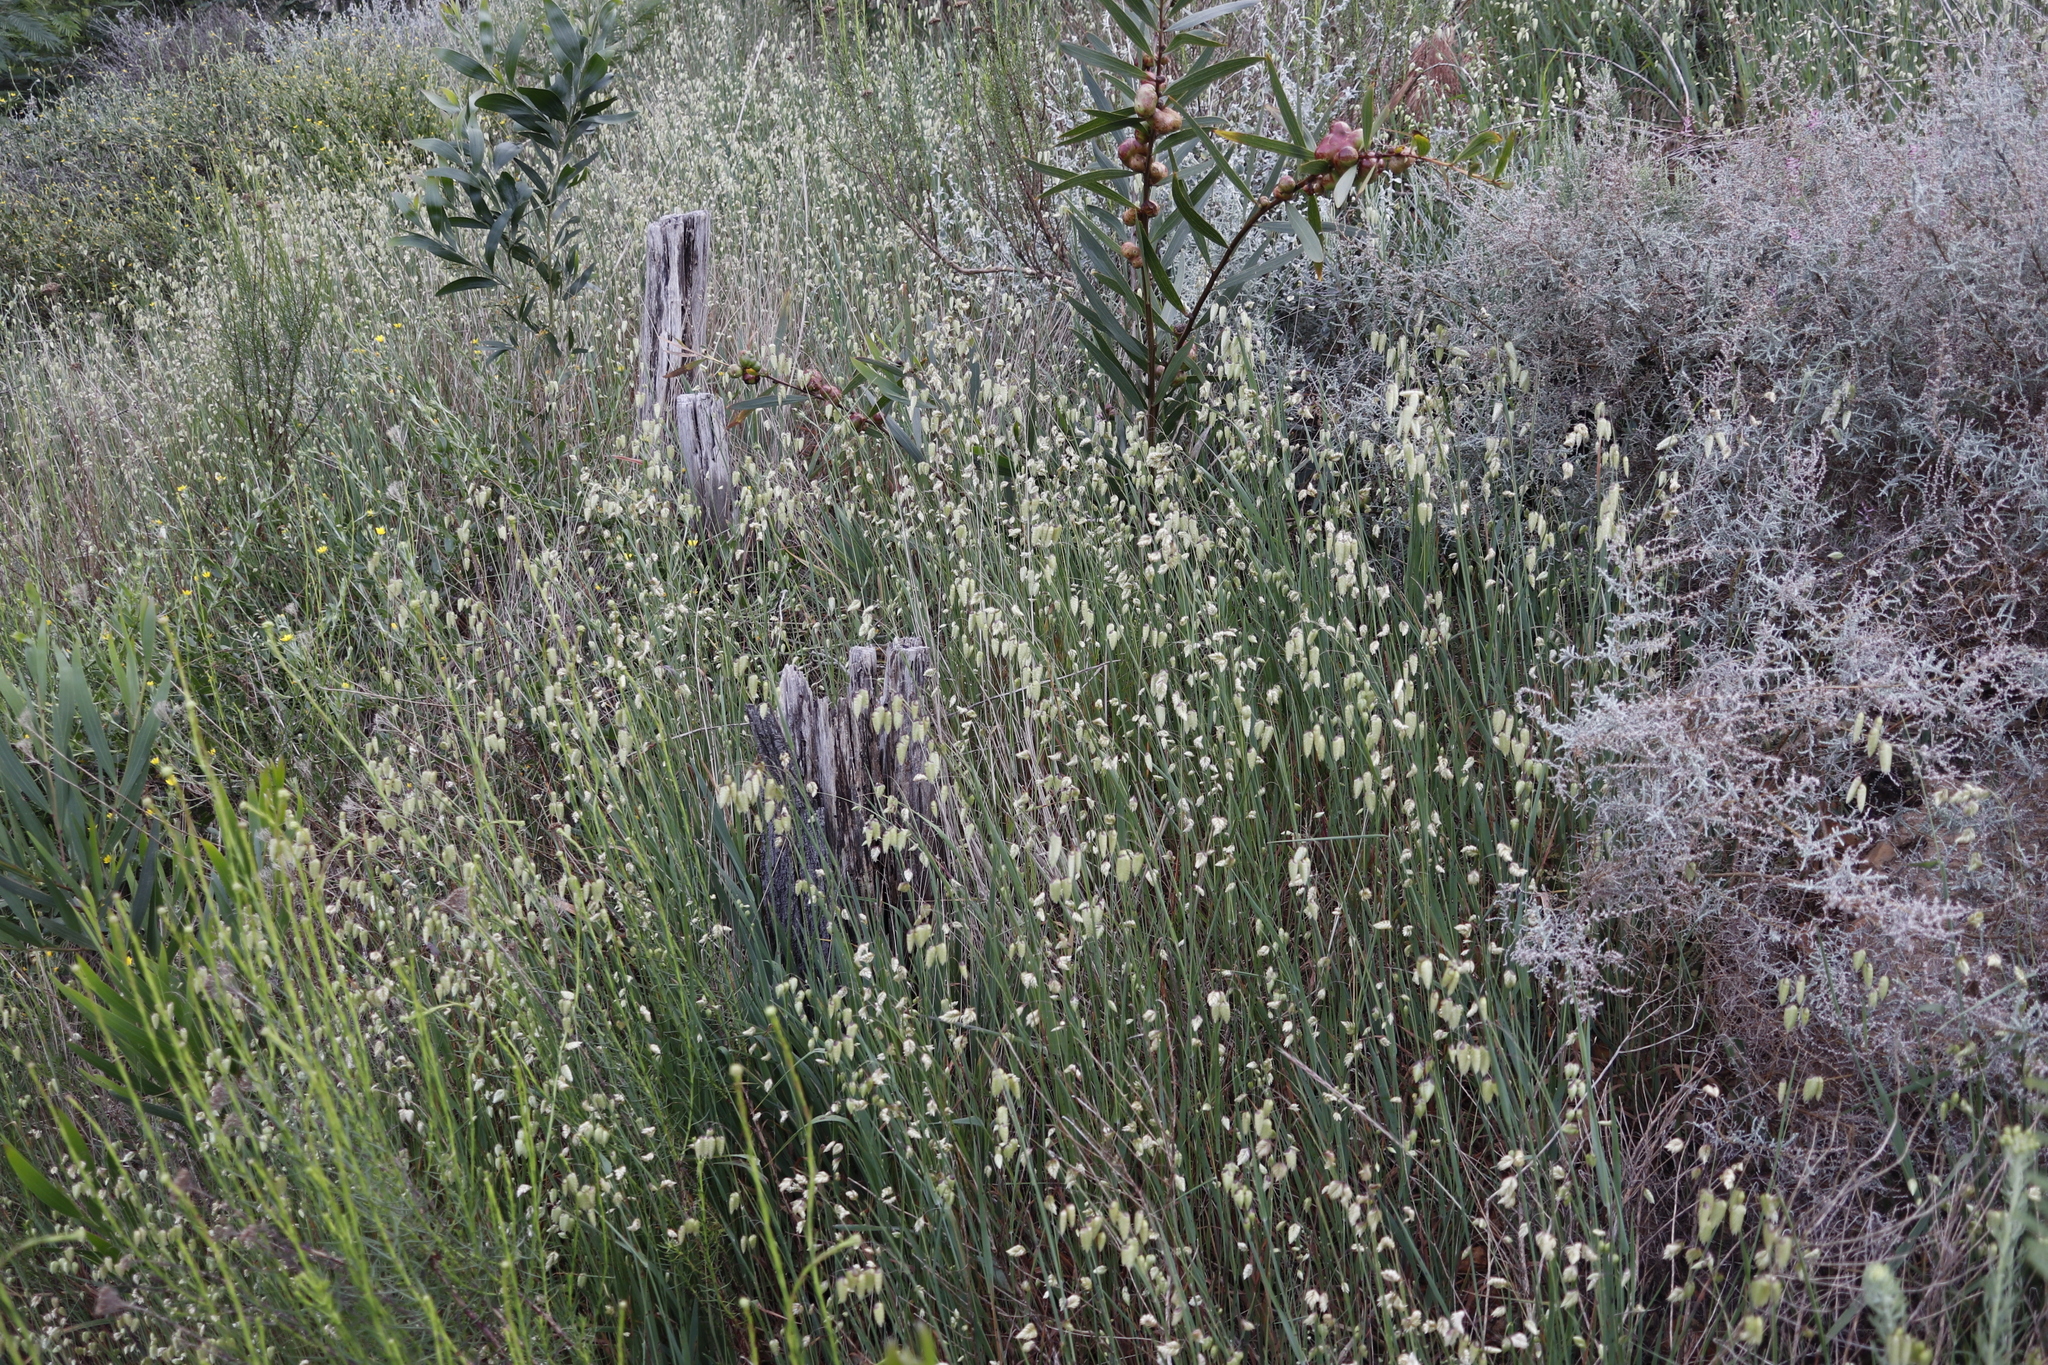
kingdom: Plantae
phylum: Tracheophyta
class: Liliopsida
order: Poales
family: Poaceae
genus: Briza
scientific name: Briza maxima
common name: Big quakinggrass
